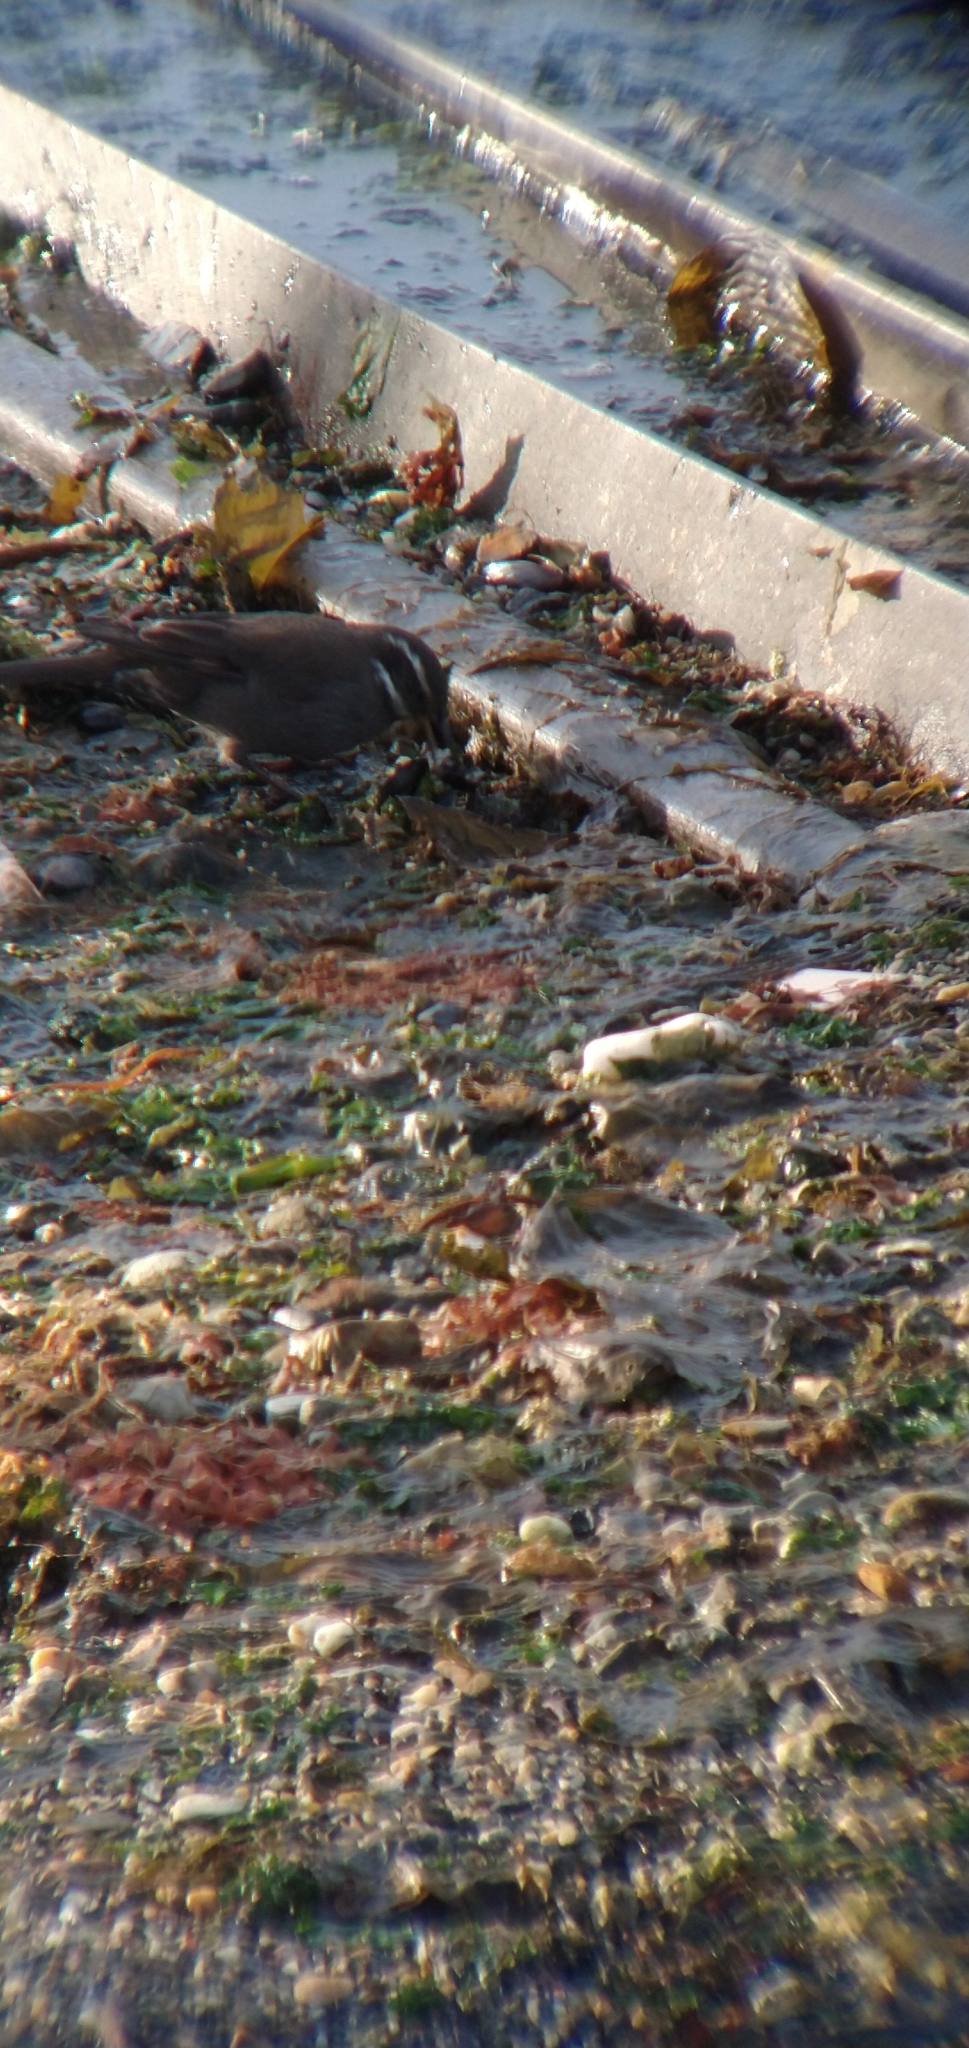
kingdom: Animalia
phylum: Chordata
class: Aves
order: Passeriformes
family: Furnariidae
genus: Cinclodes
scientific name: Cinclodes patagonicus
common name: Dark-bellied cinclodes
